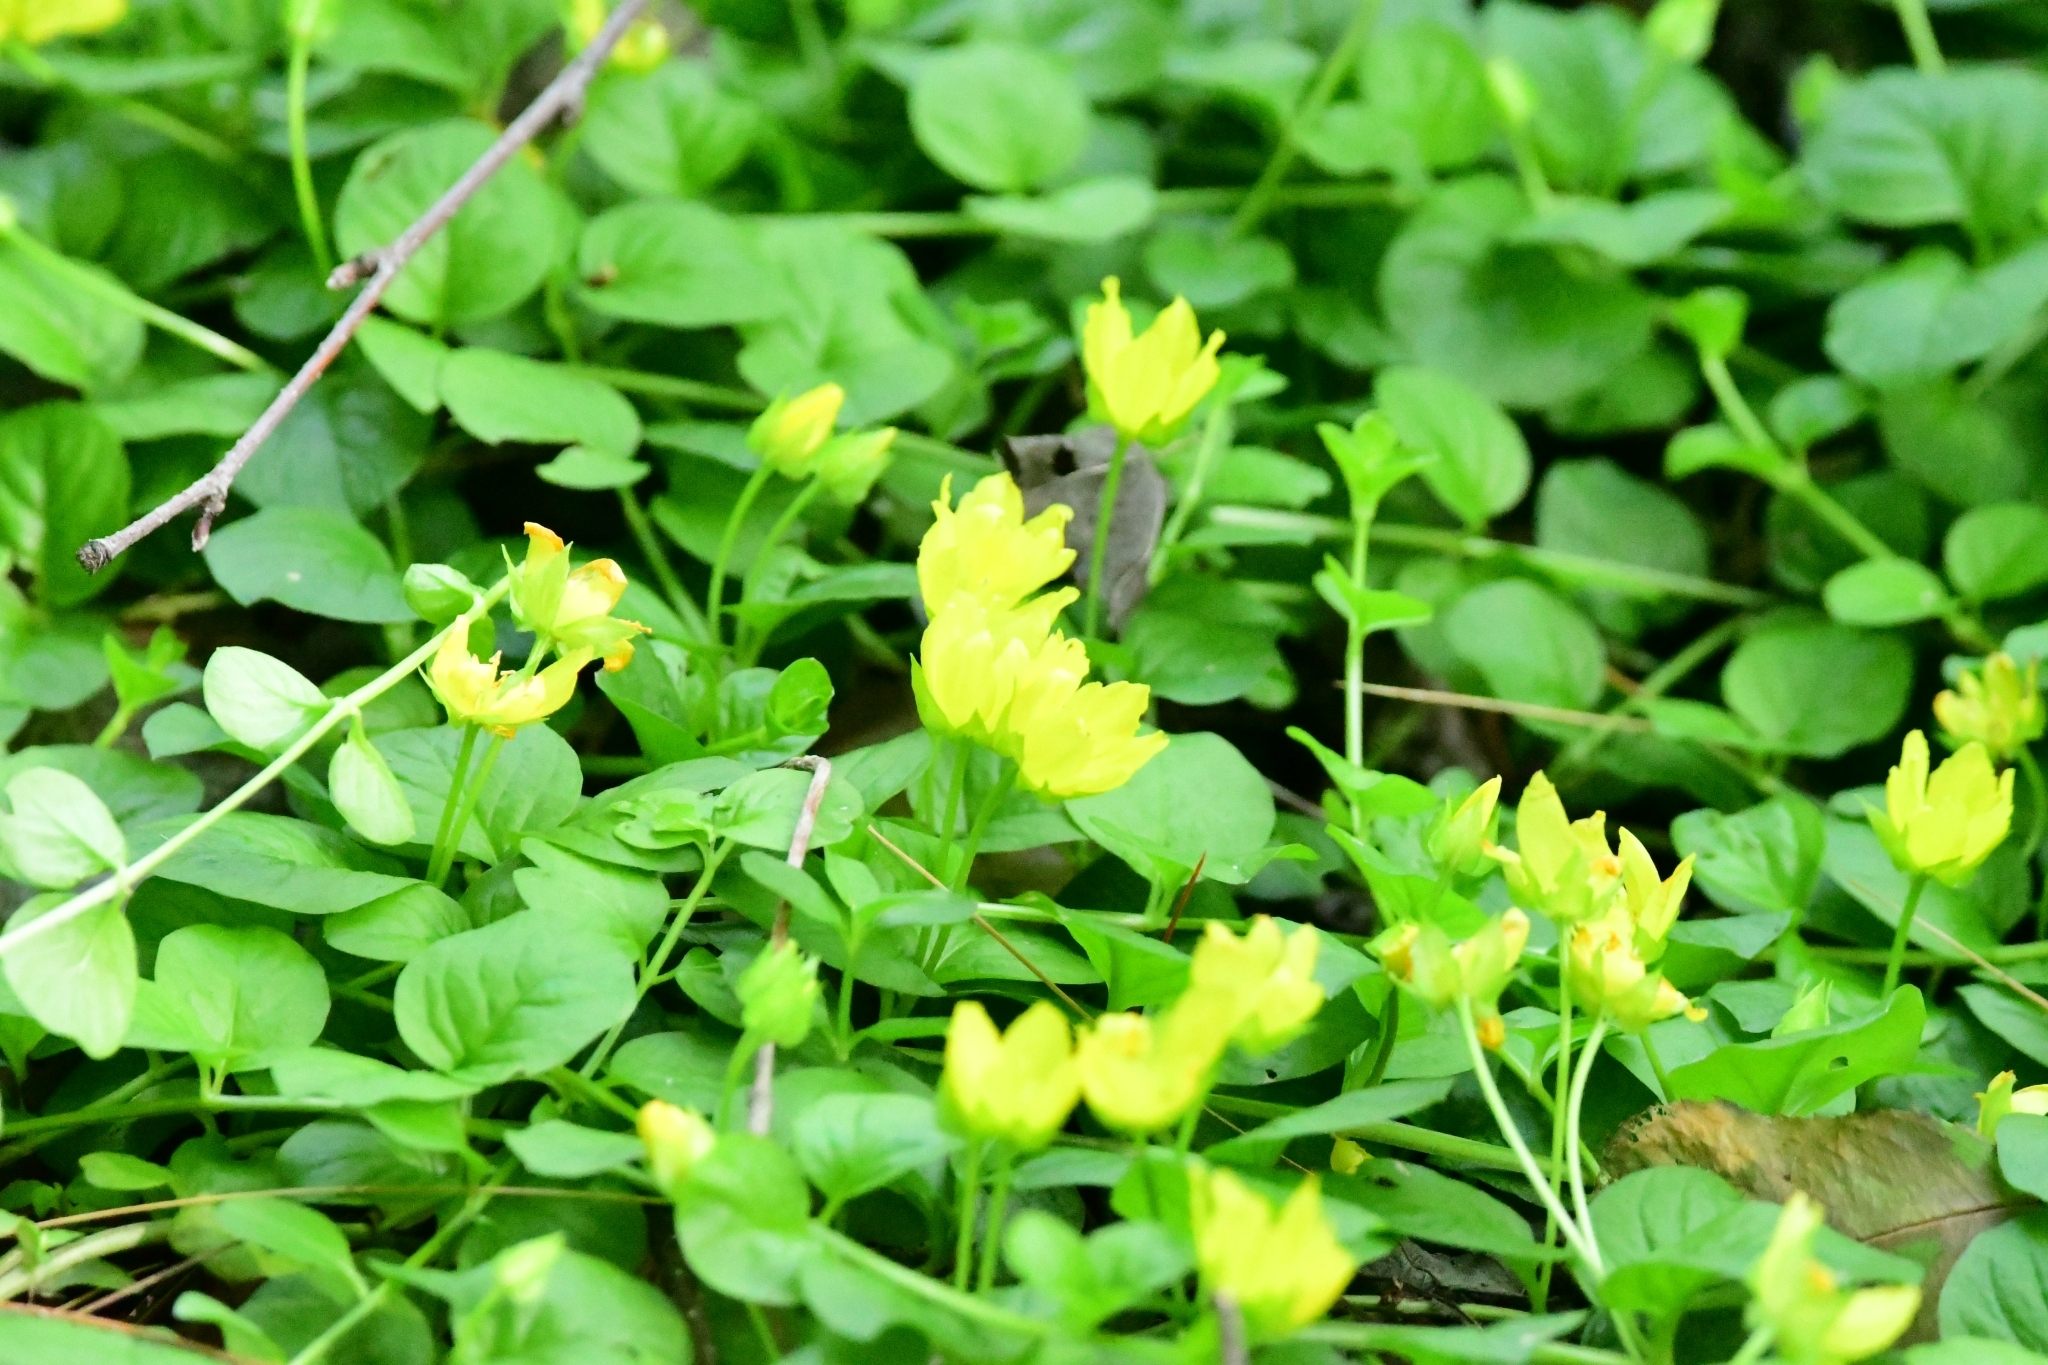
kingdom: Plantae
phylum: Tracheophyta
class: Magnoliopsida
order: Ericales
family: Primulaceae
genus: Lysimachia
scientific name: Lysimachia nummularia
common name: Moneywort
